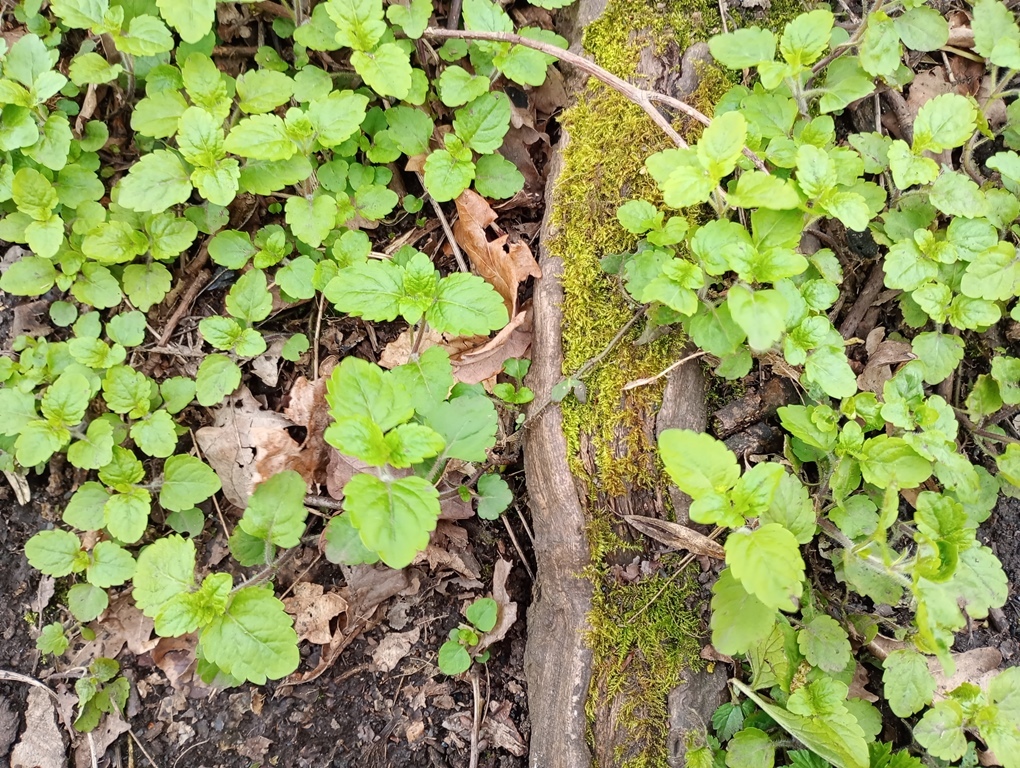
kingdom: Plantae
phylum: Tracheophyta
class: Magnoliopsida
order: Lamiales
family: Plantaginaceae
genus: Veronica
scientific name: Veronica montana
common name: Wood speedwell
